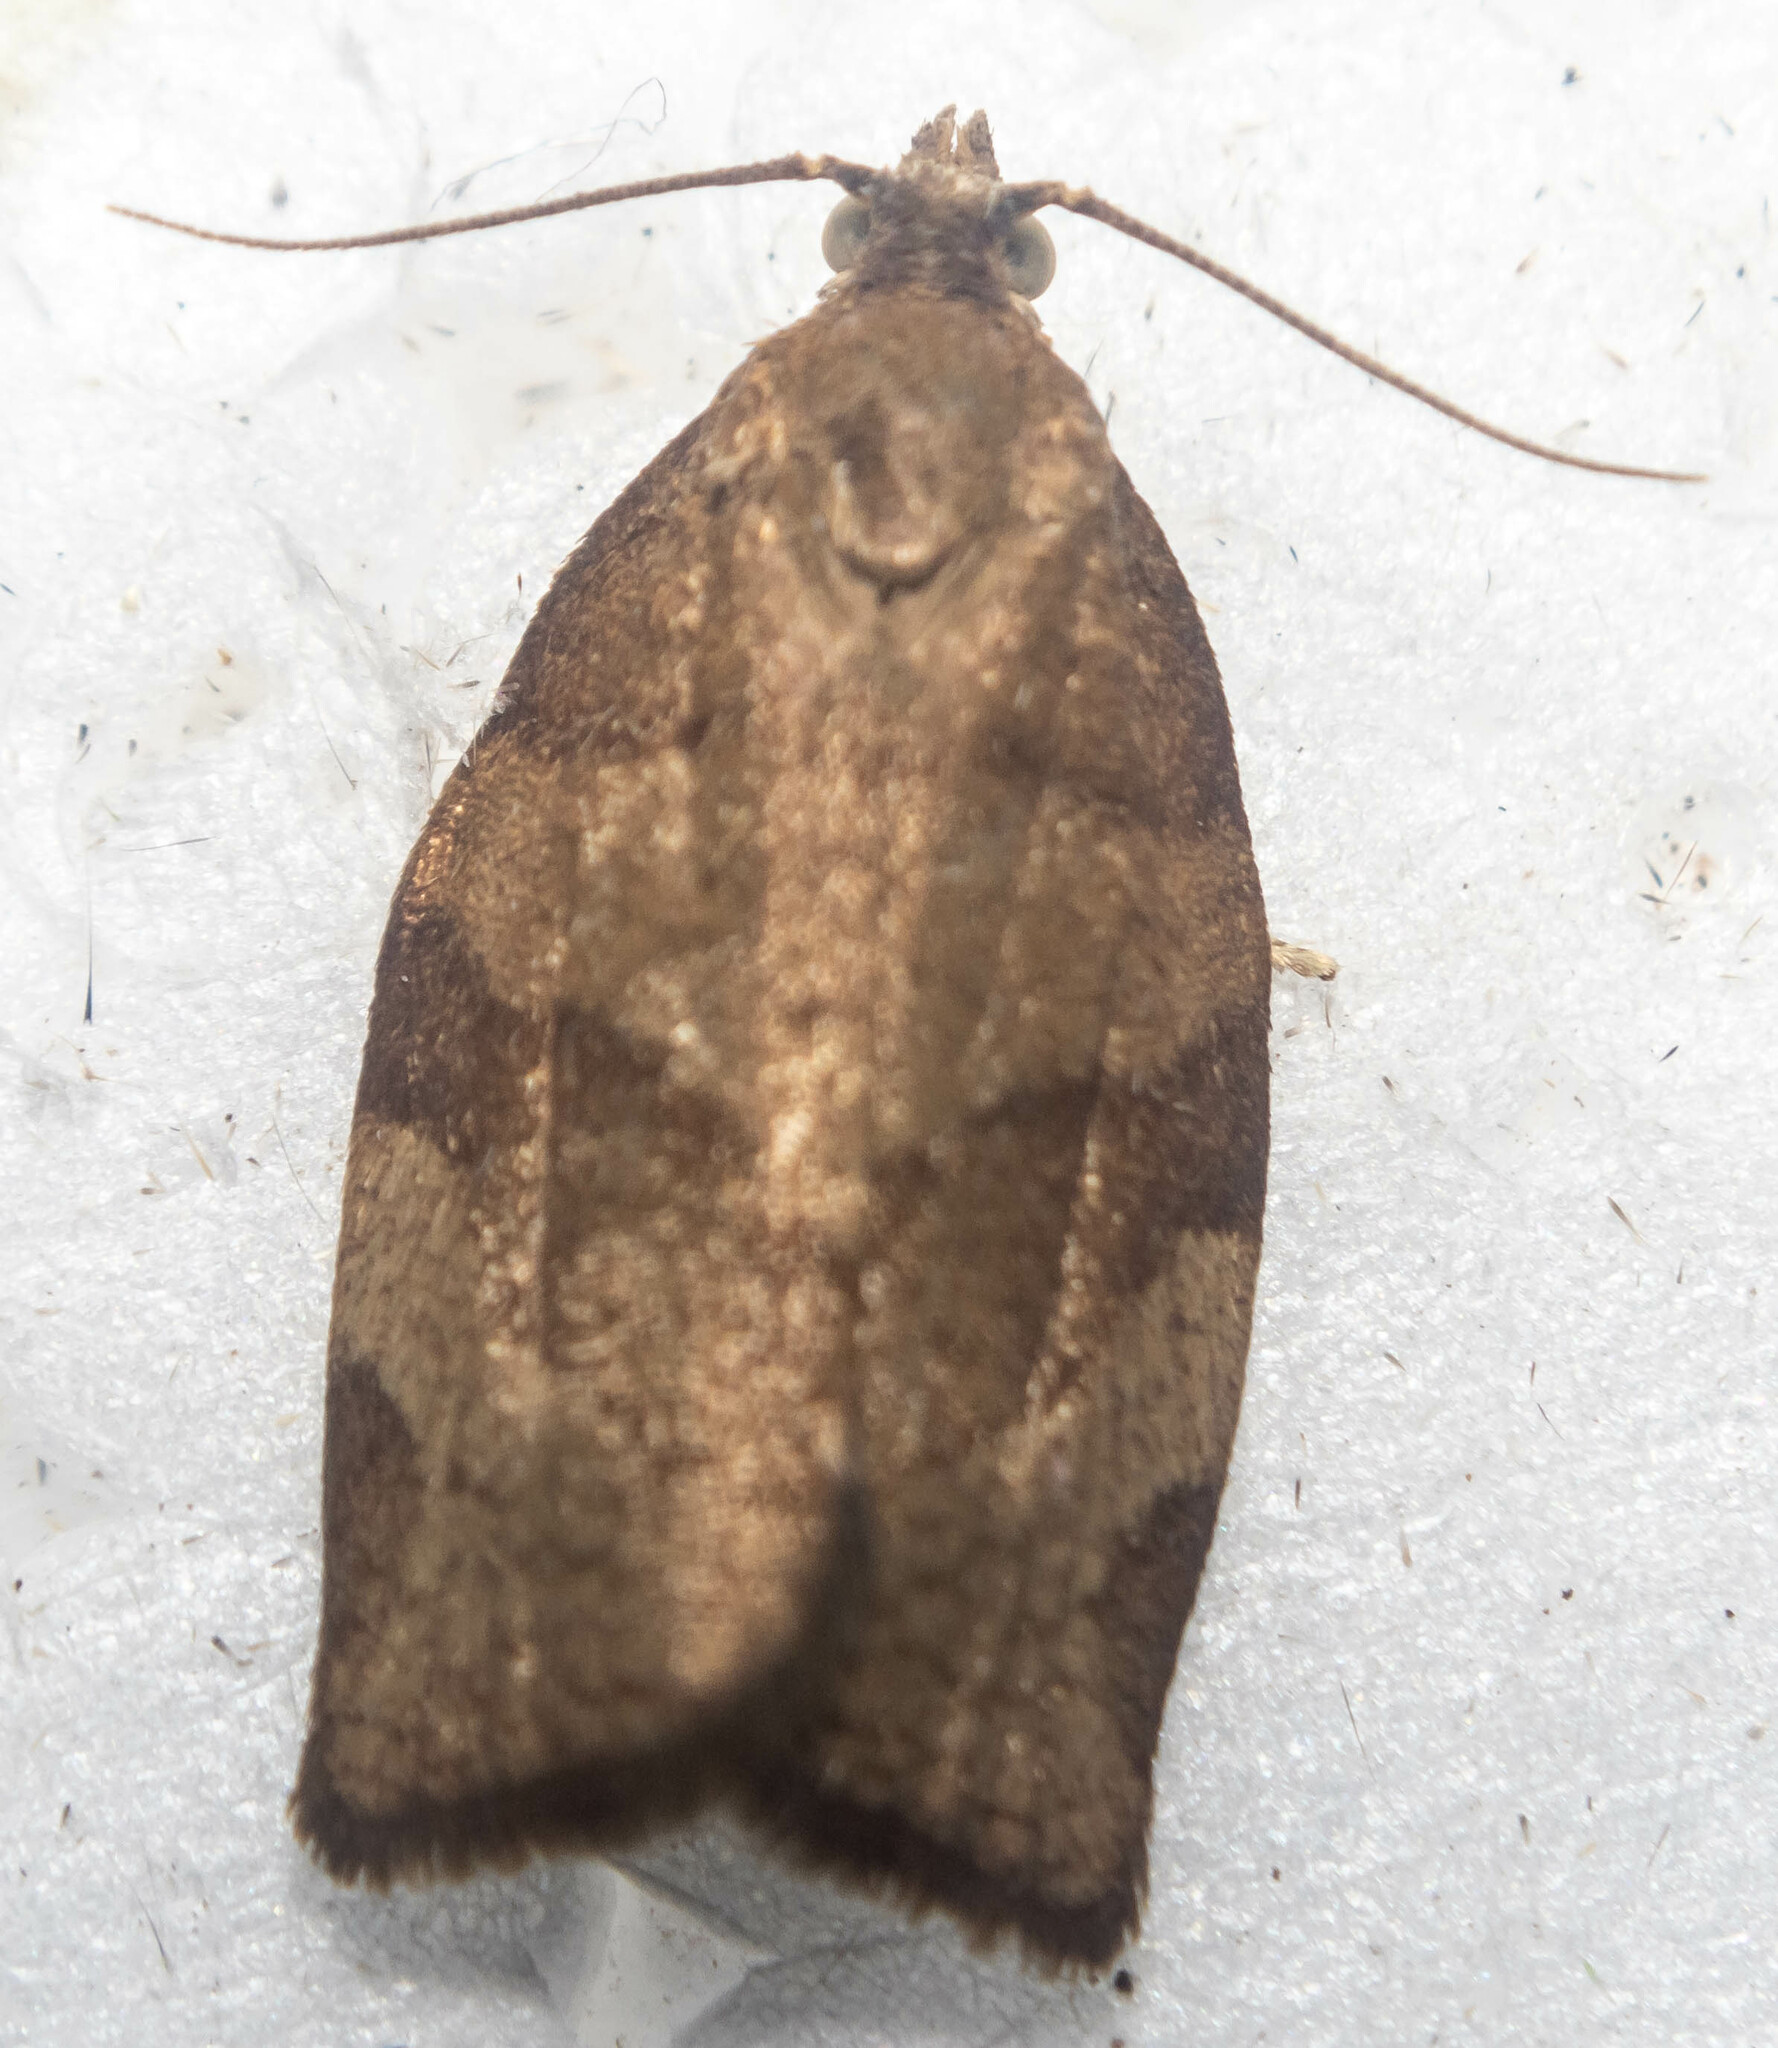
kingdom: Animalia
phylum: Arthropoda
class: Insecta
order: Lepidoptera
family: Tortricidae
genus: Pandemis
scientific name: Pandemis cerasana
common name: Barred fruit-tree tortrix
